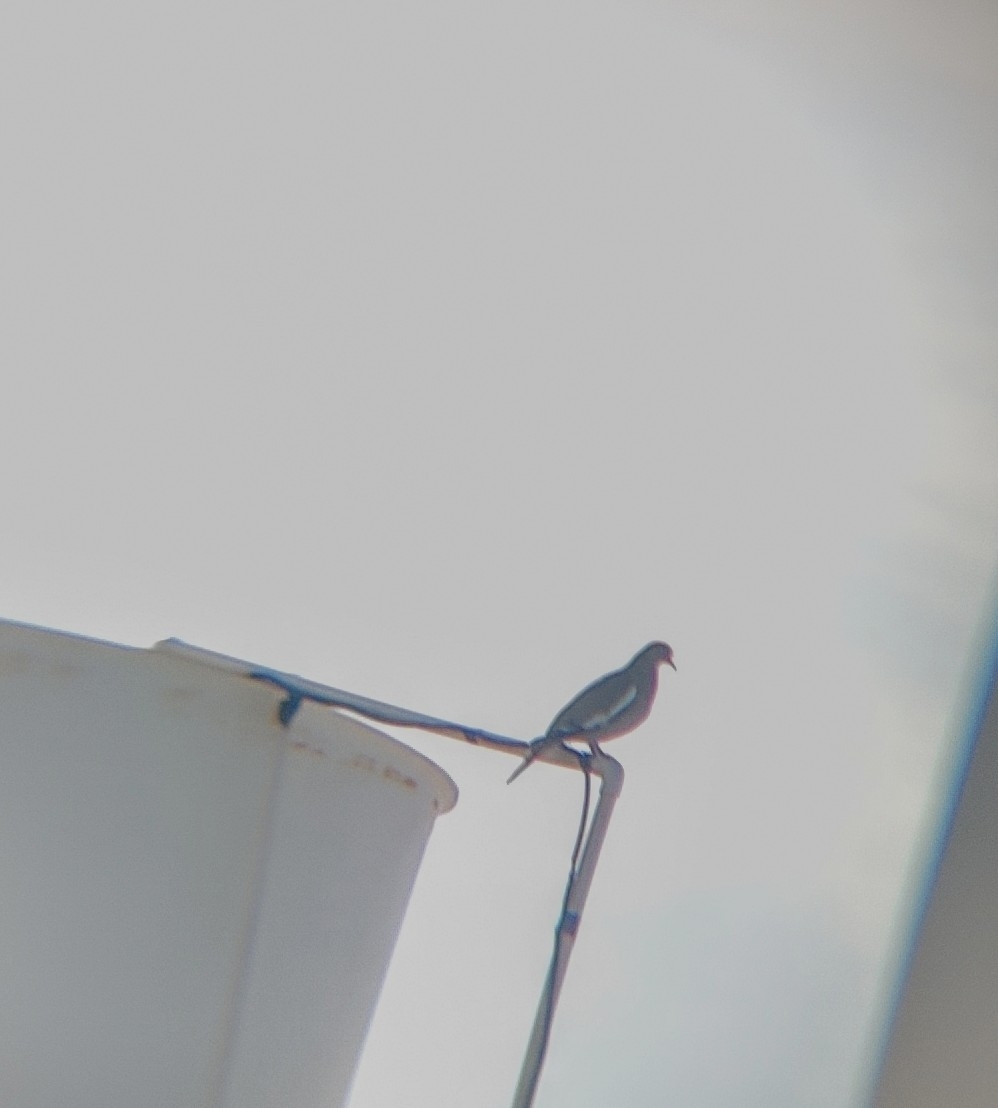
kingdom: Animalia
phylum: Chordata
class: Aves
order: Columbiformes
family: Columbidae
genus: Zenaida
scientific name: Zenaida asiatica
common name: White-winged dove
